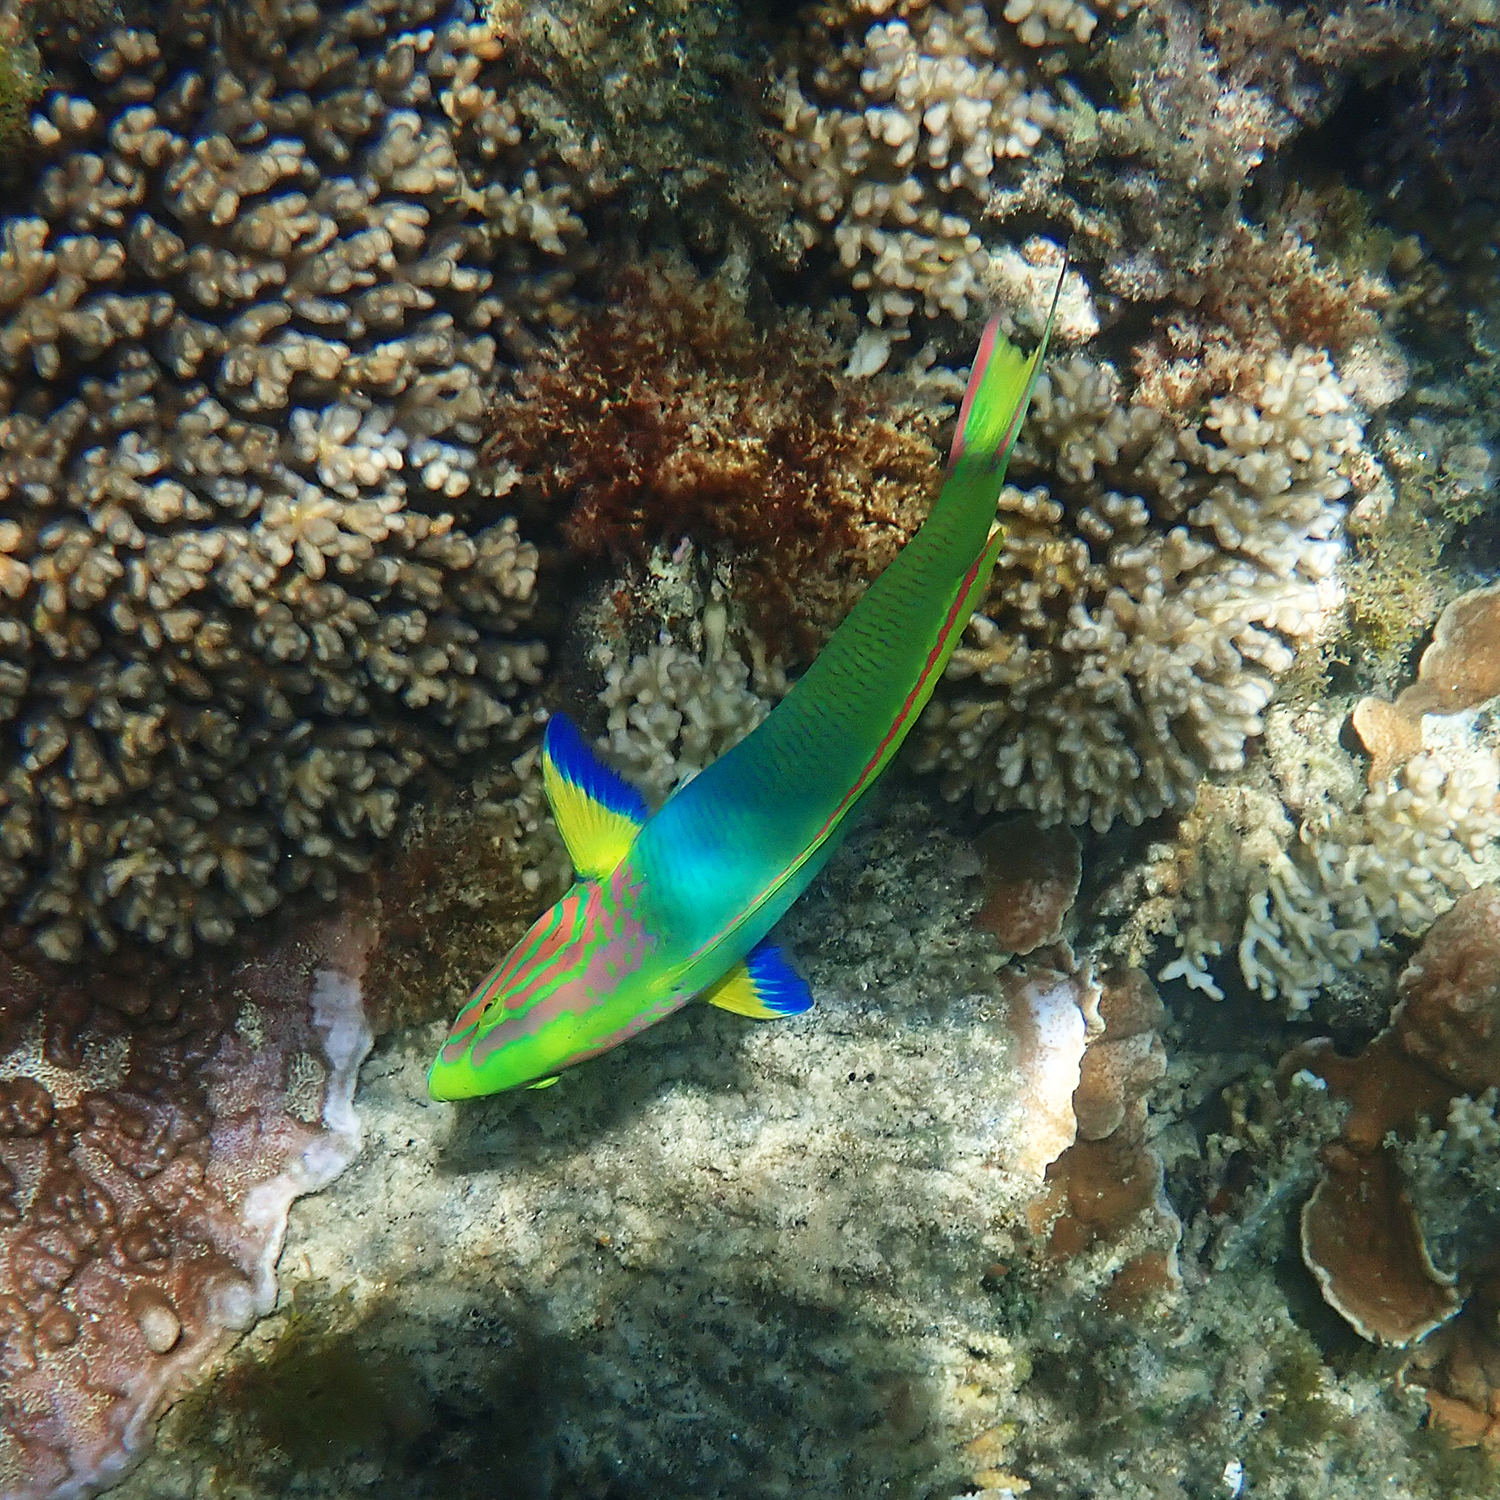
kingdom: Animalia
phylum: Chordata
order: Perciformes
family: Labridae
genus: Thalassoma
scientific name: Thalassoma lutescens
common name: Green moon wrasse
